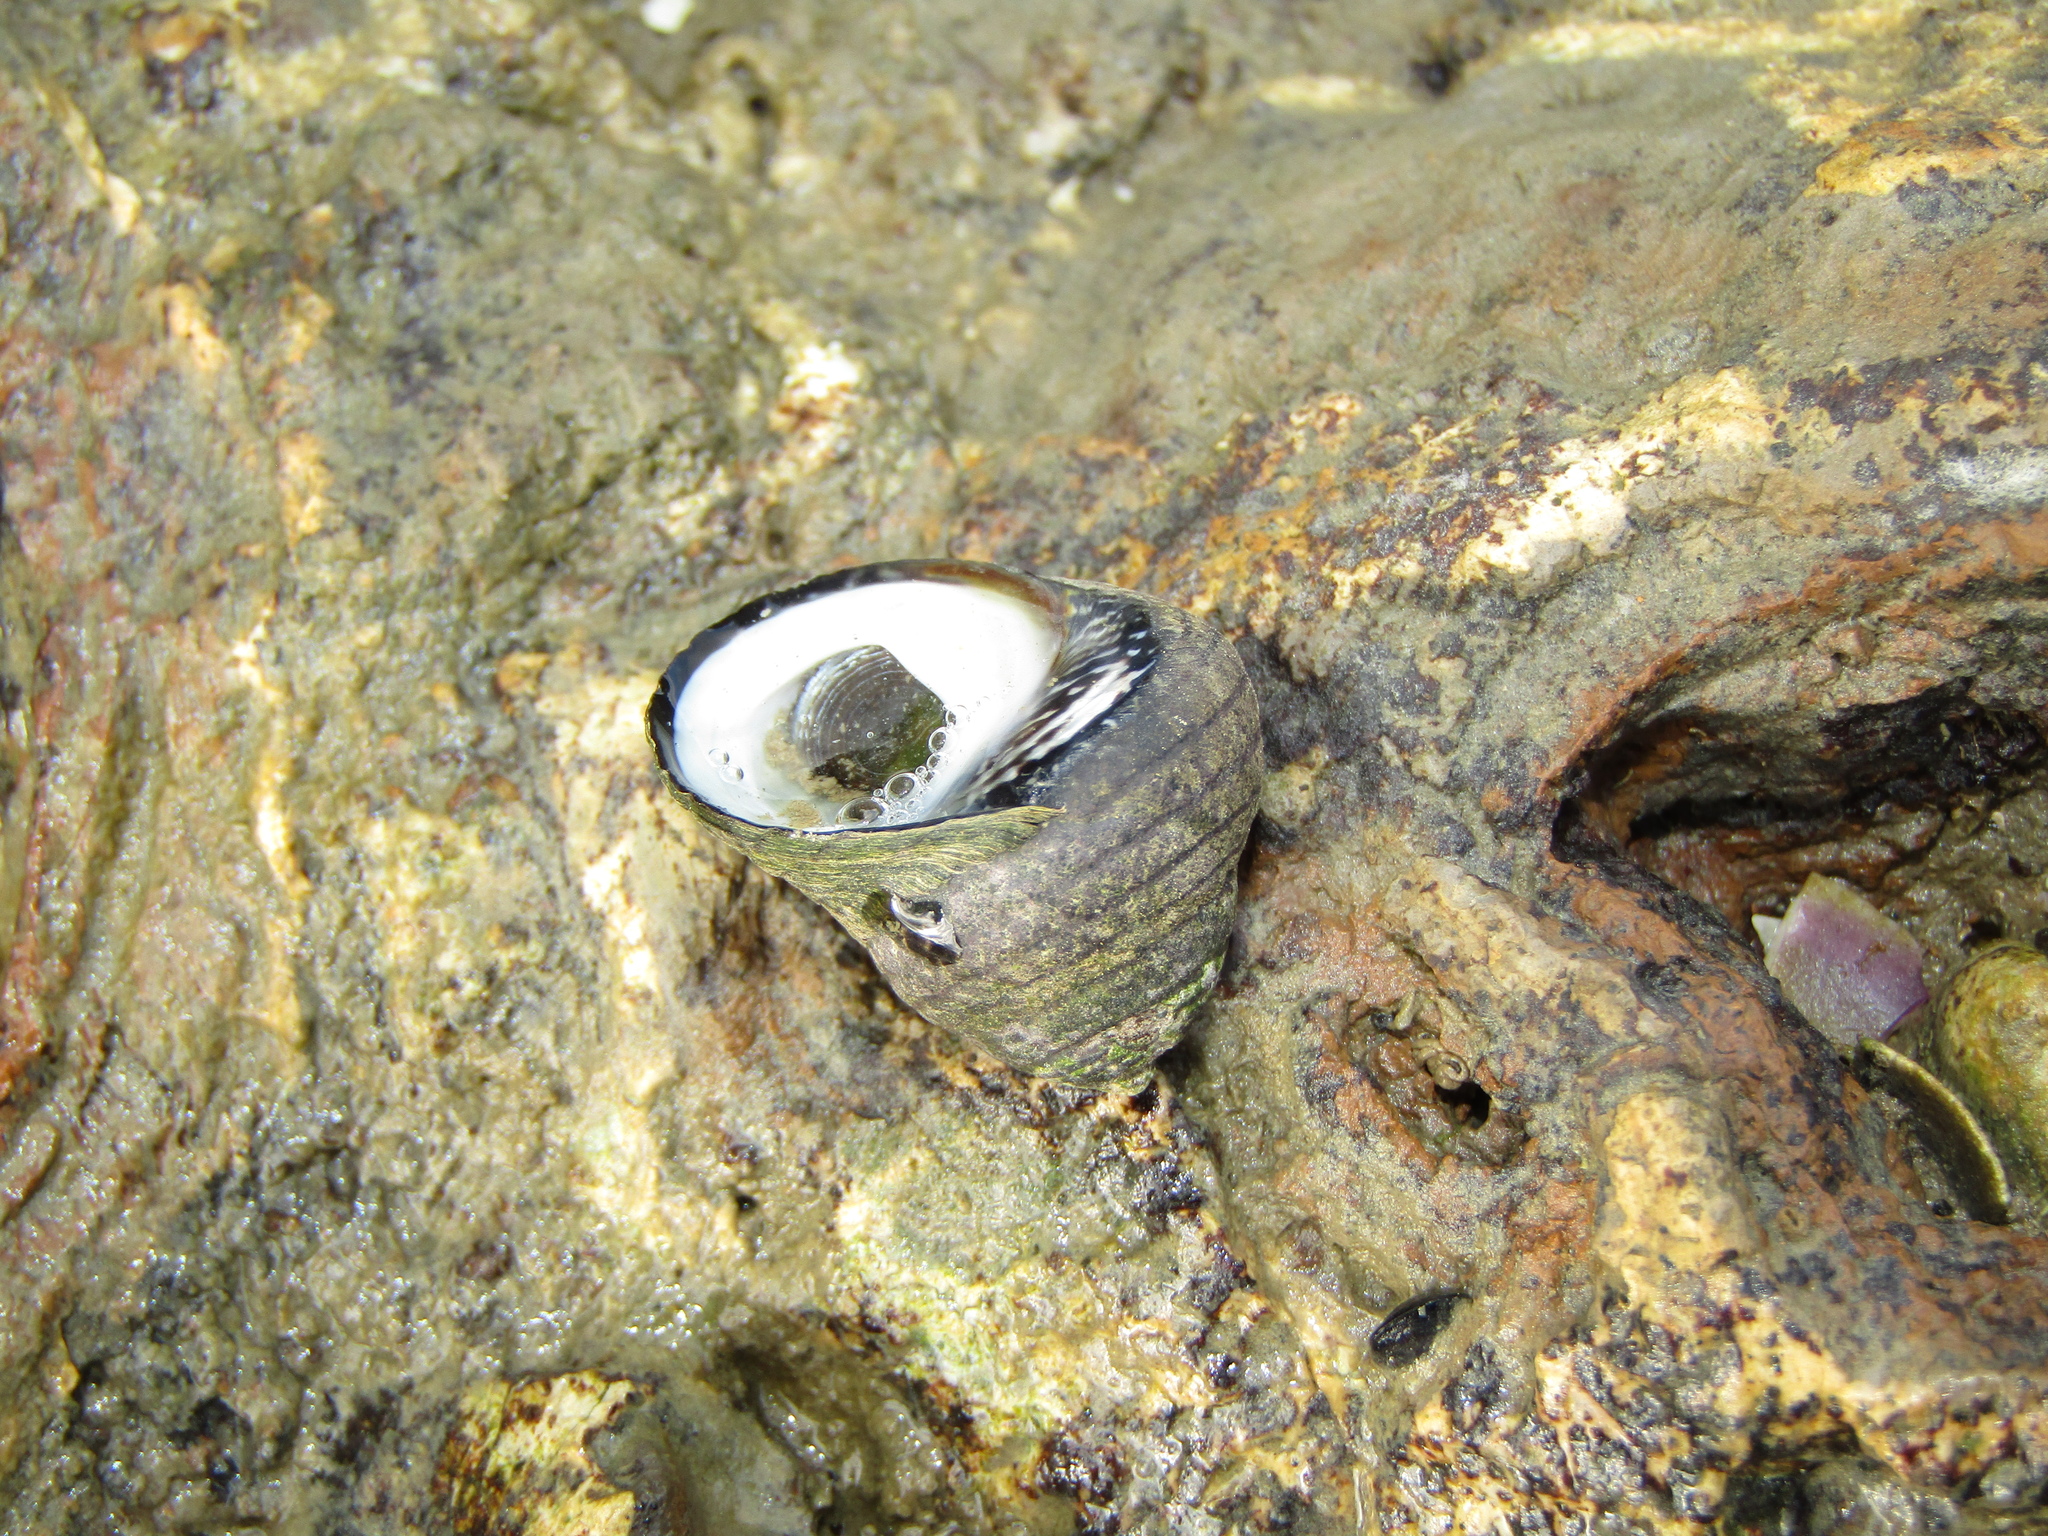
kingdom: Animalia
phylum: Mollusca
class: Gastropoda
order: Trochida
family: Trochidae
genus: Diloma
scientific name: Diloma aethiops
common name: Scorched monodont
